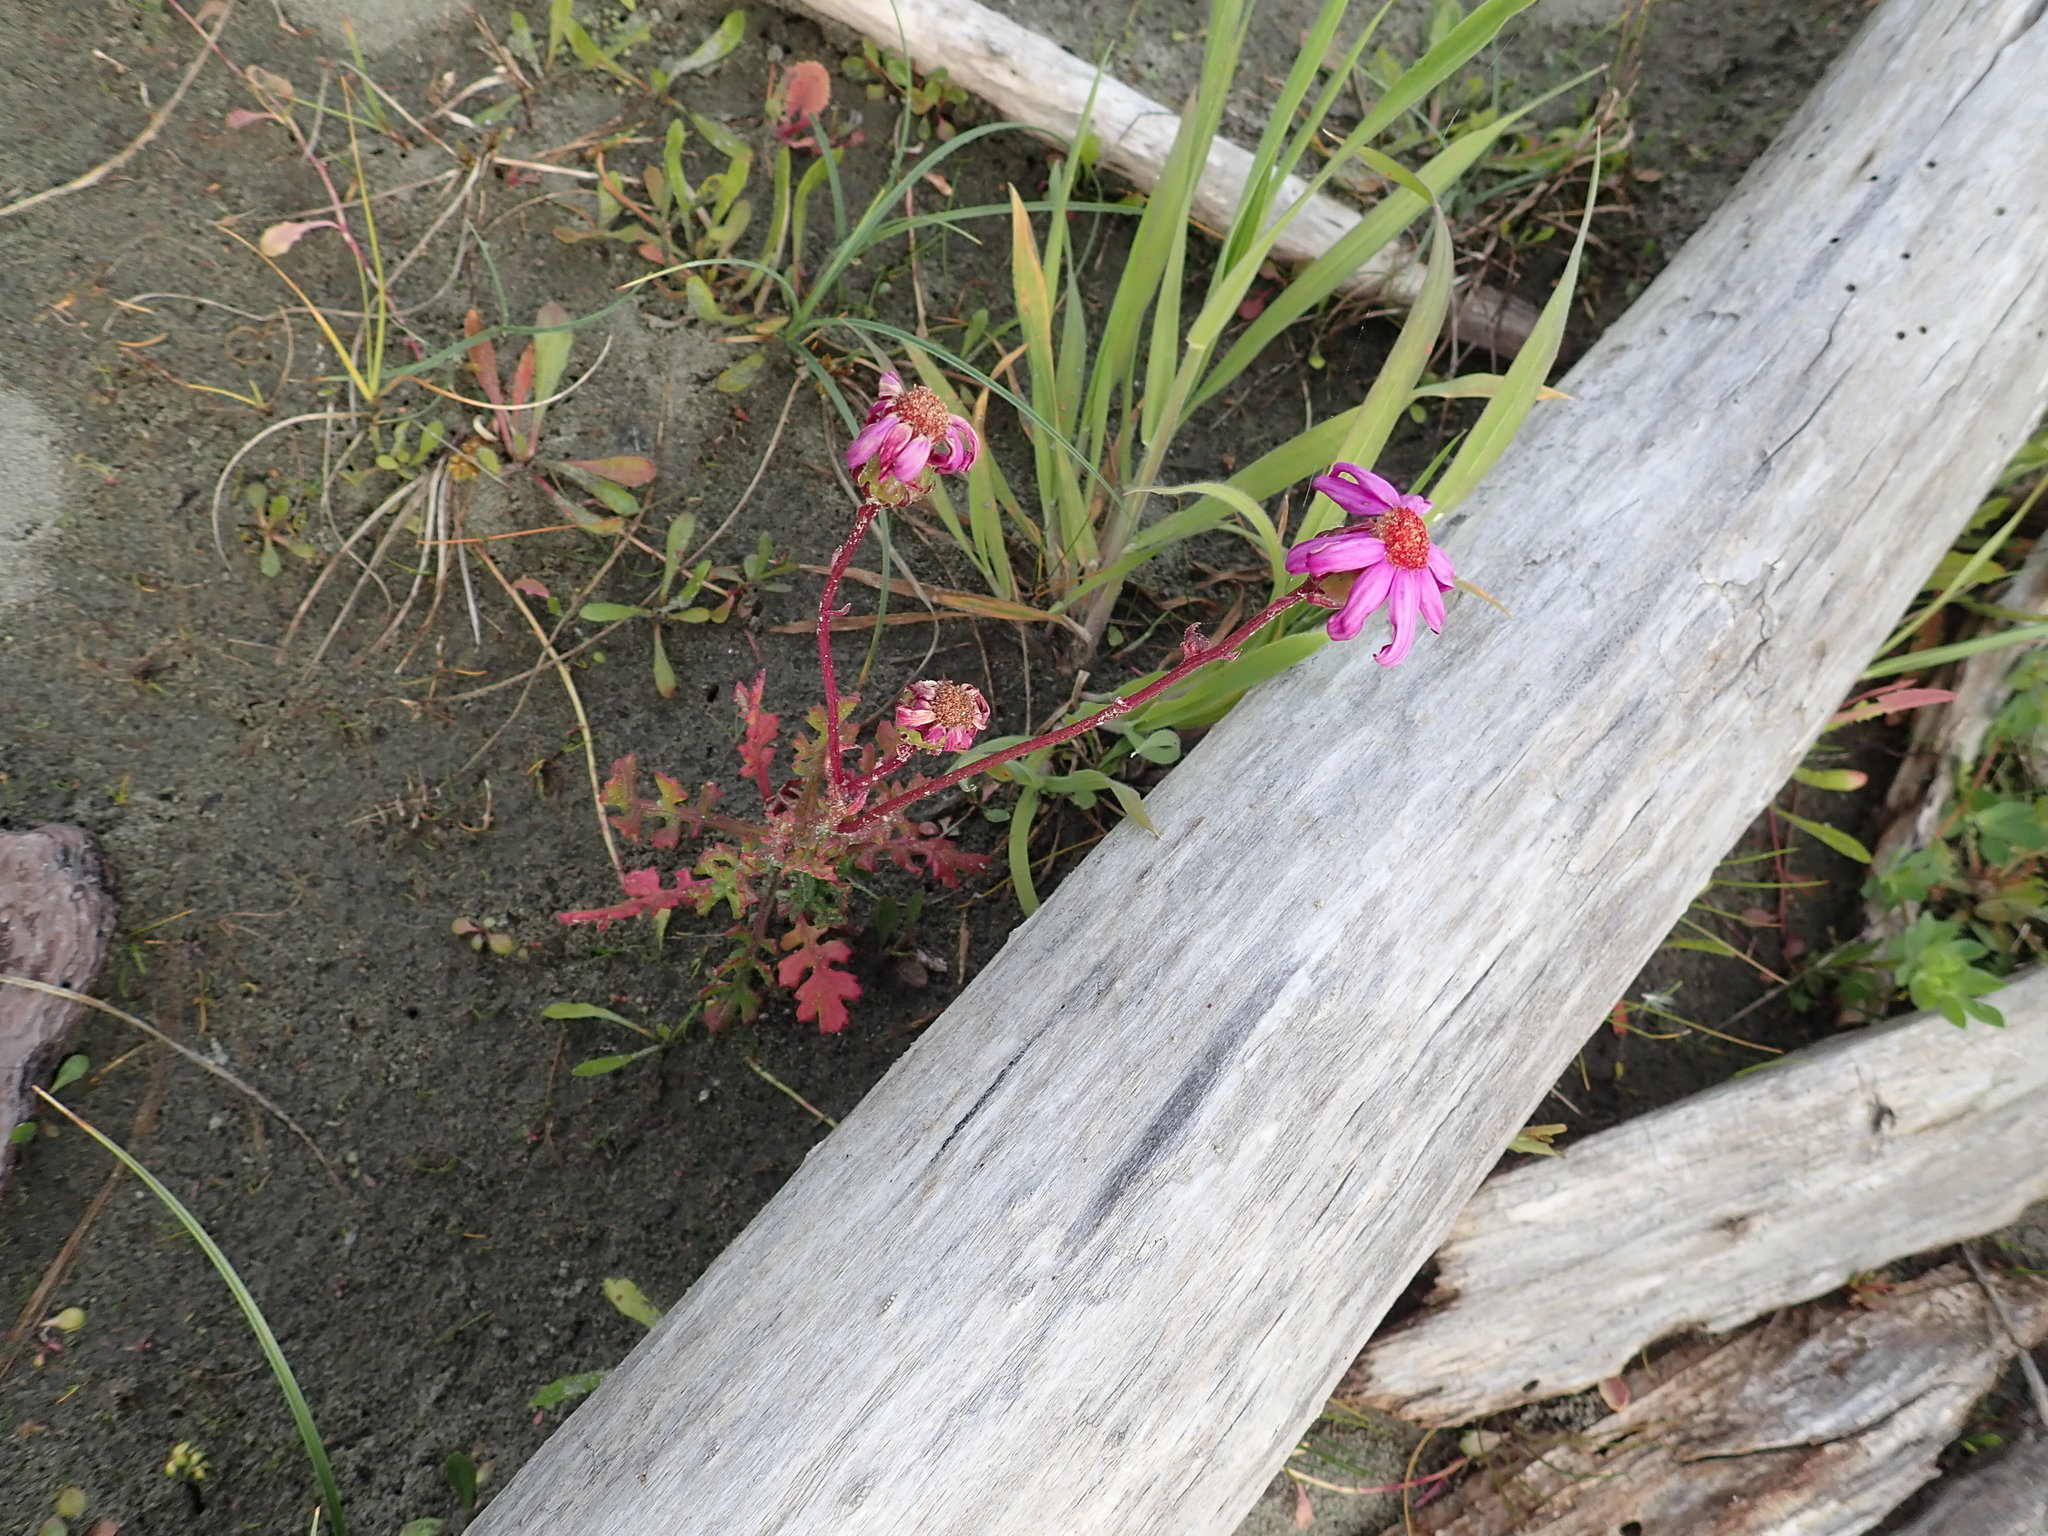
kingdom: Plantae
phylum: Tracheophyta
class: Magnoliopsida
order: Asterales
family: Asteraceae
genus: Senecio
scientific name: Senecio elegans
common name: Purple groundsel
